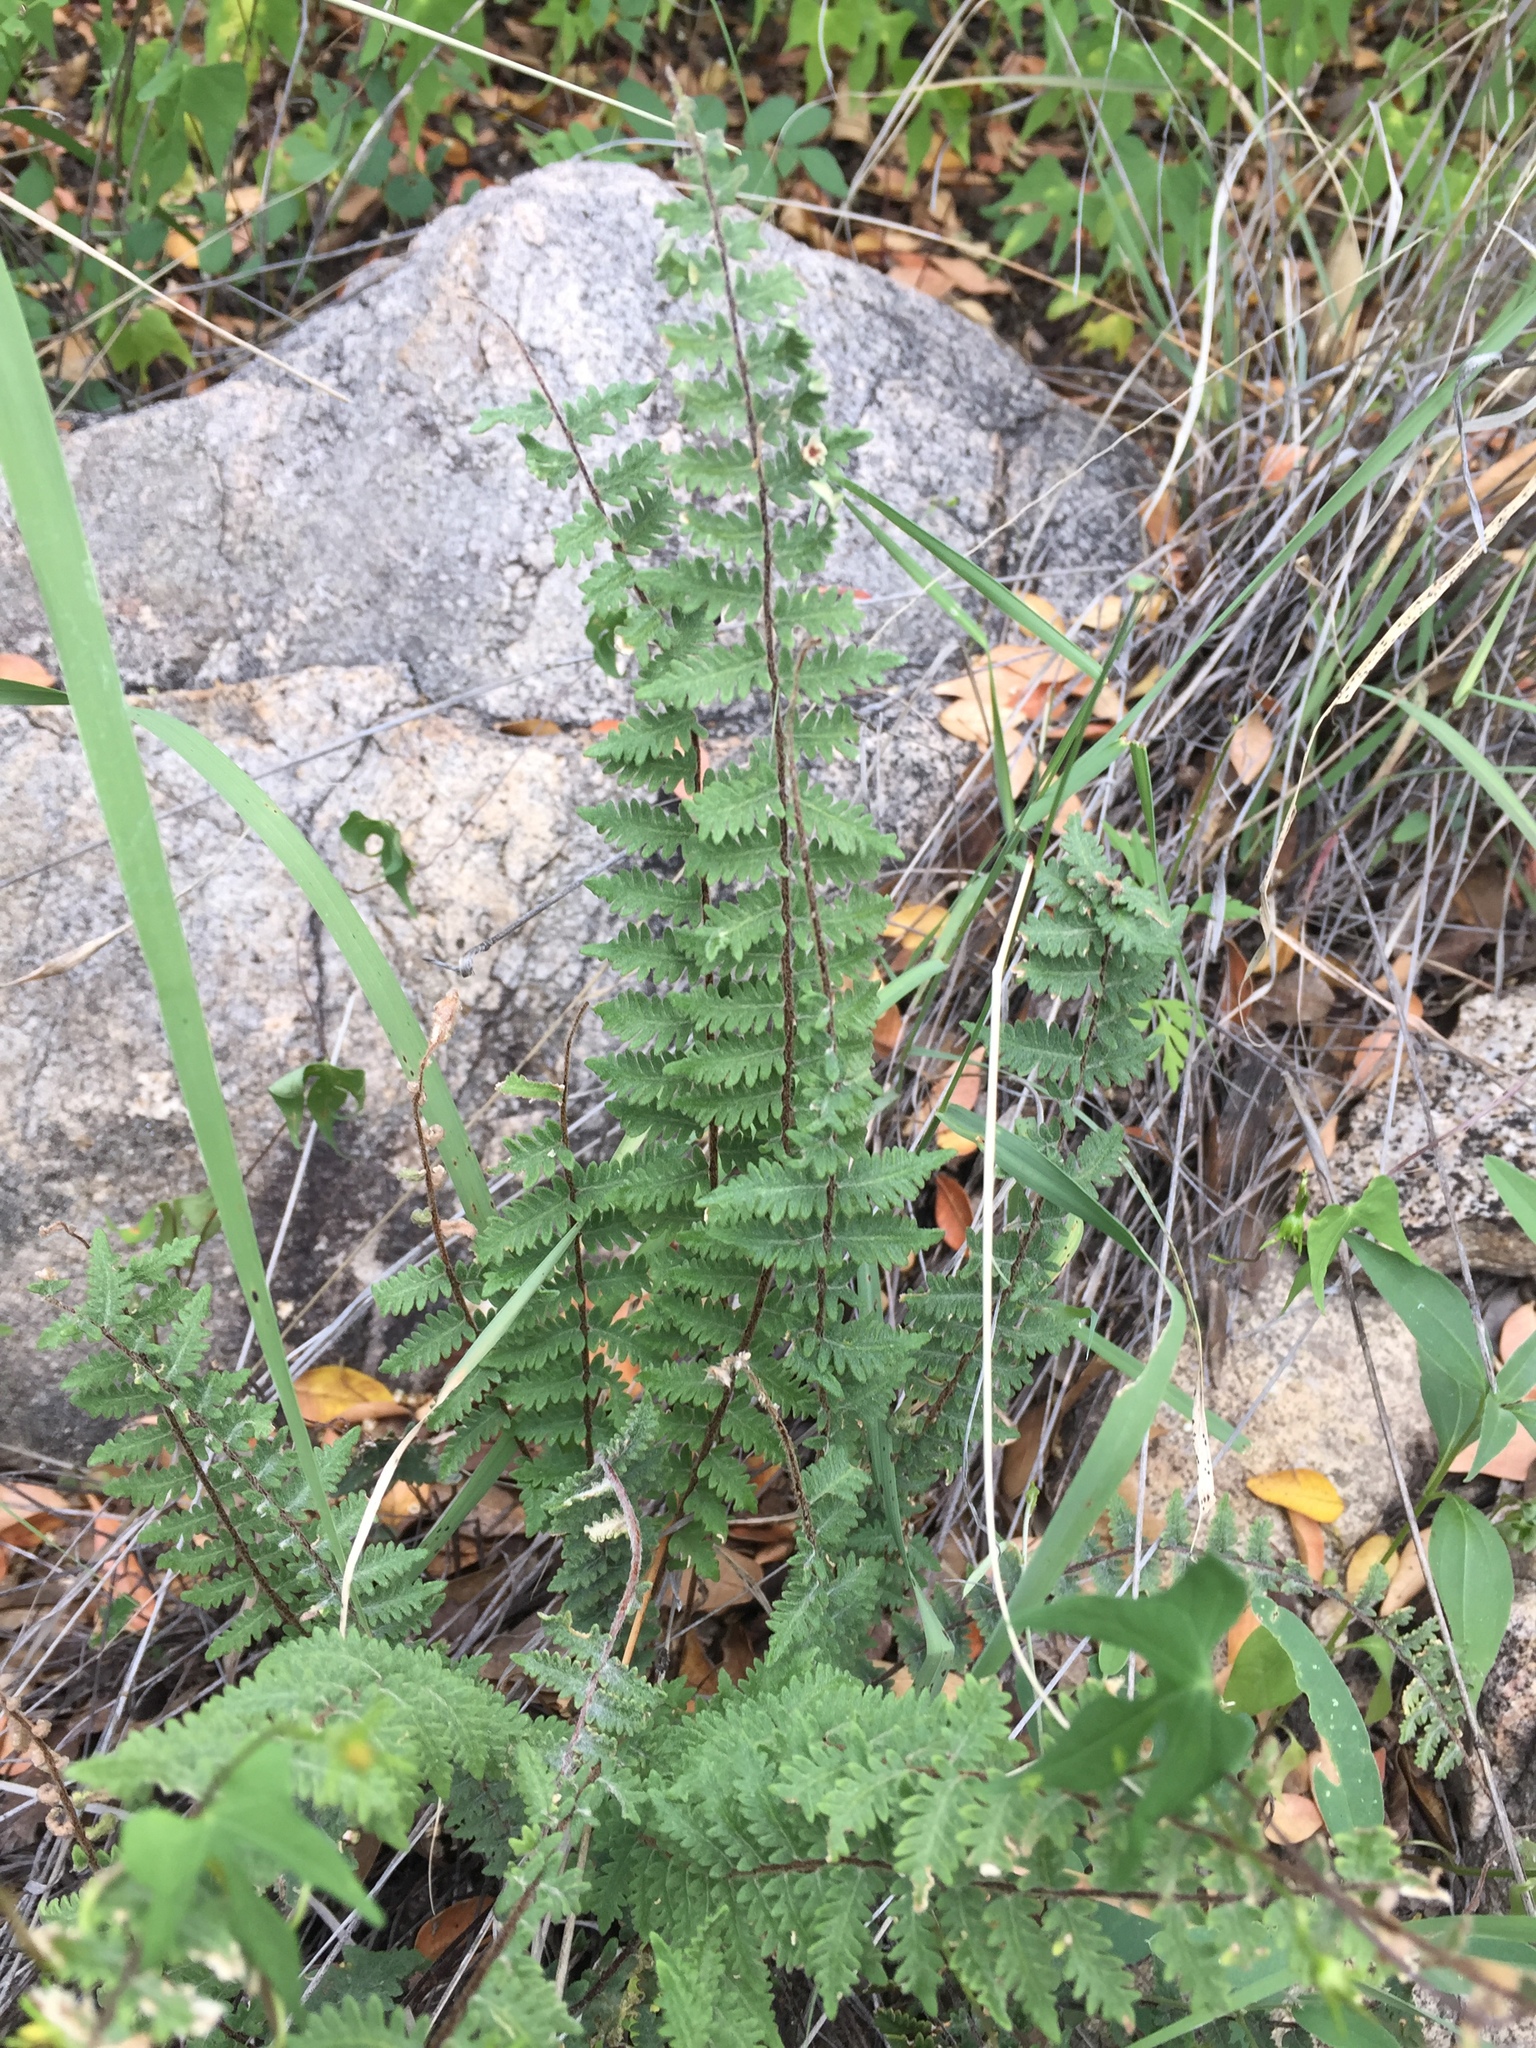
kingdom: Plantae
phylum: Tracheophyta
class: Polypodiopsida
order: Polypodiales
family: Pteridaceae
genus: Myriopteris
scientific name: Myriopteris aurea
